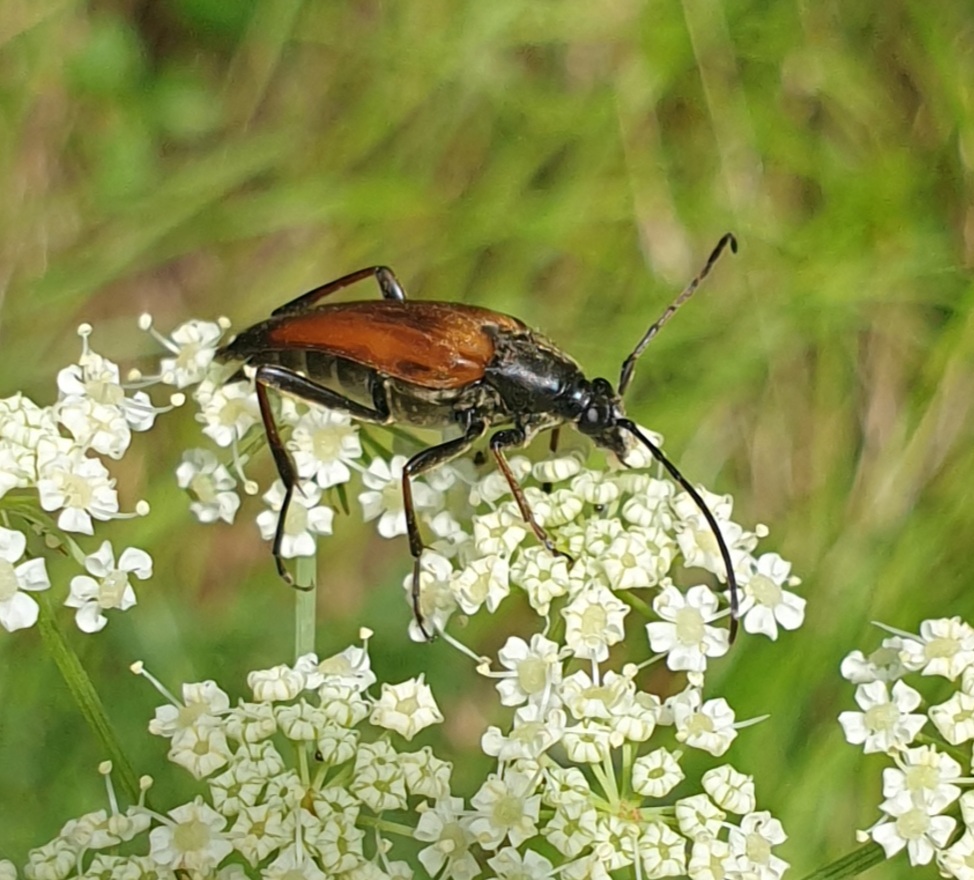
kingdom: Animalia
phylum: Arthropoda
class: Insecta
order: Coleoptera
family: Cerambycidae
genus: Etorofus
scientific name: Etorofus pubescens
